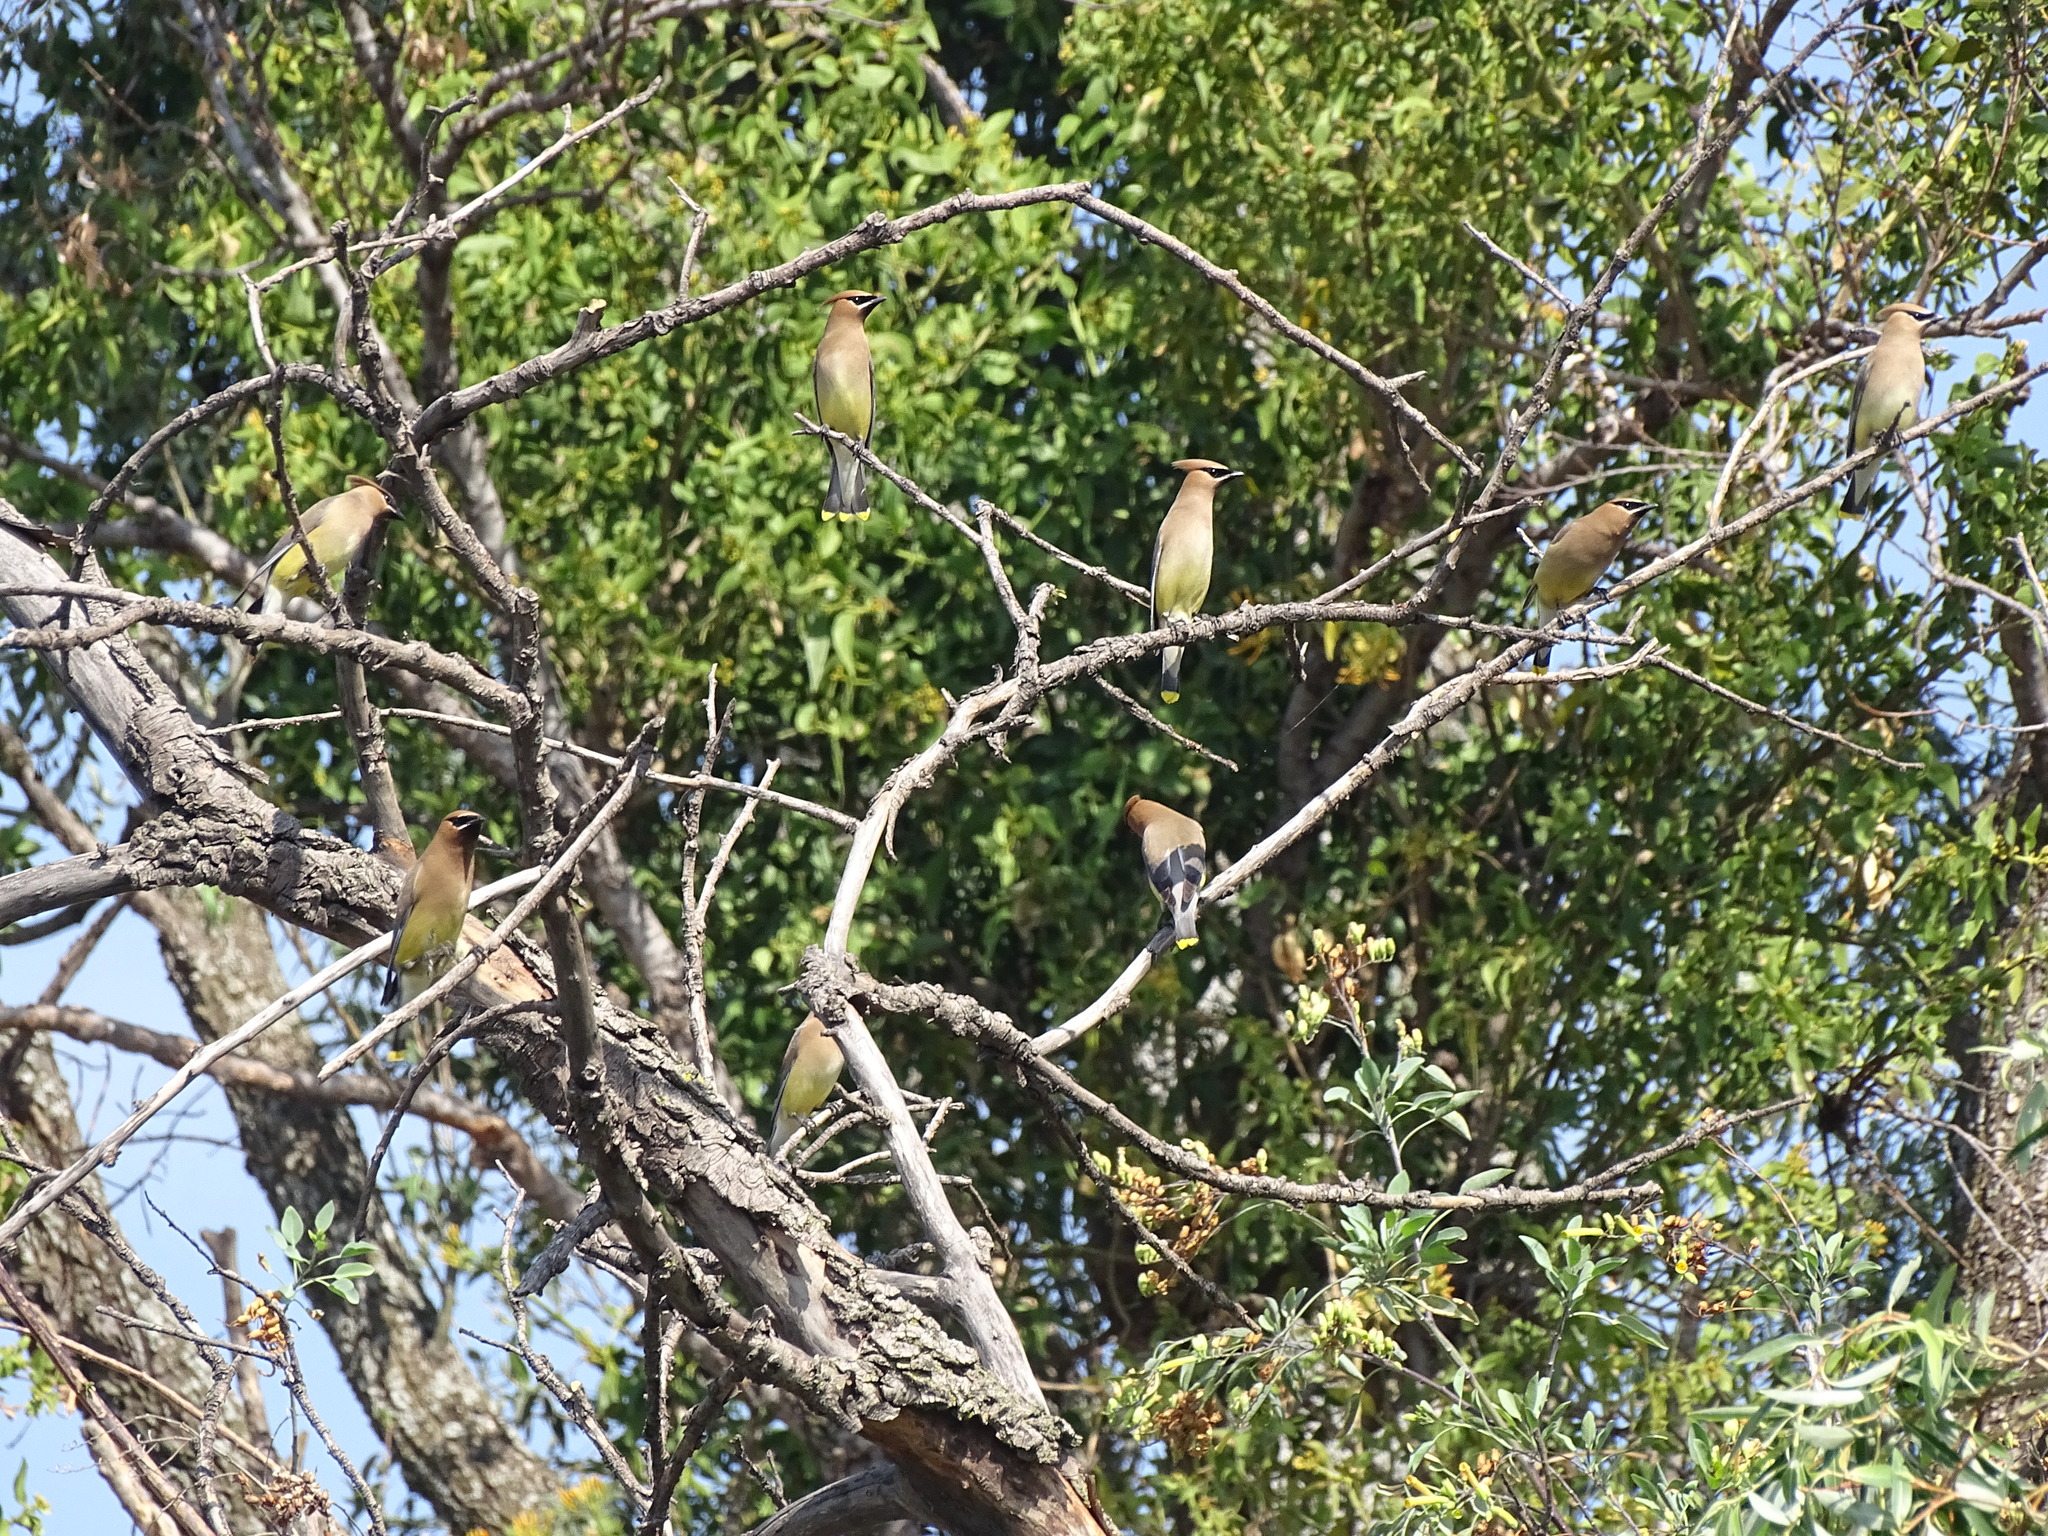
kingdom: Animalia
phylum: Chordata
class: Aves
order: Passeriformes
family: Bombycillidae
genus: Bombycilla
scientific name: Bombycilla cedrorum
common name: Cedar waxwing
